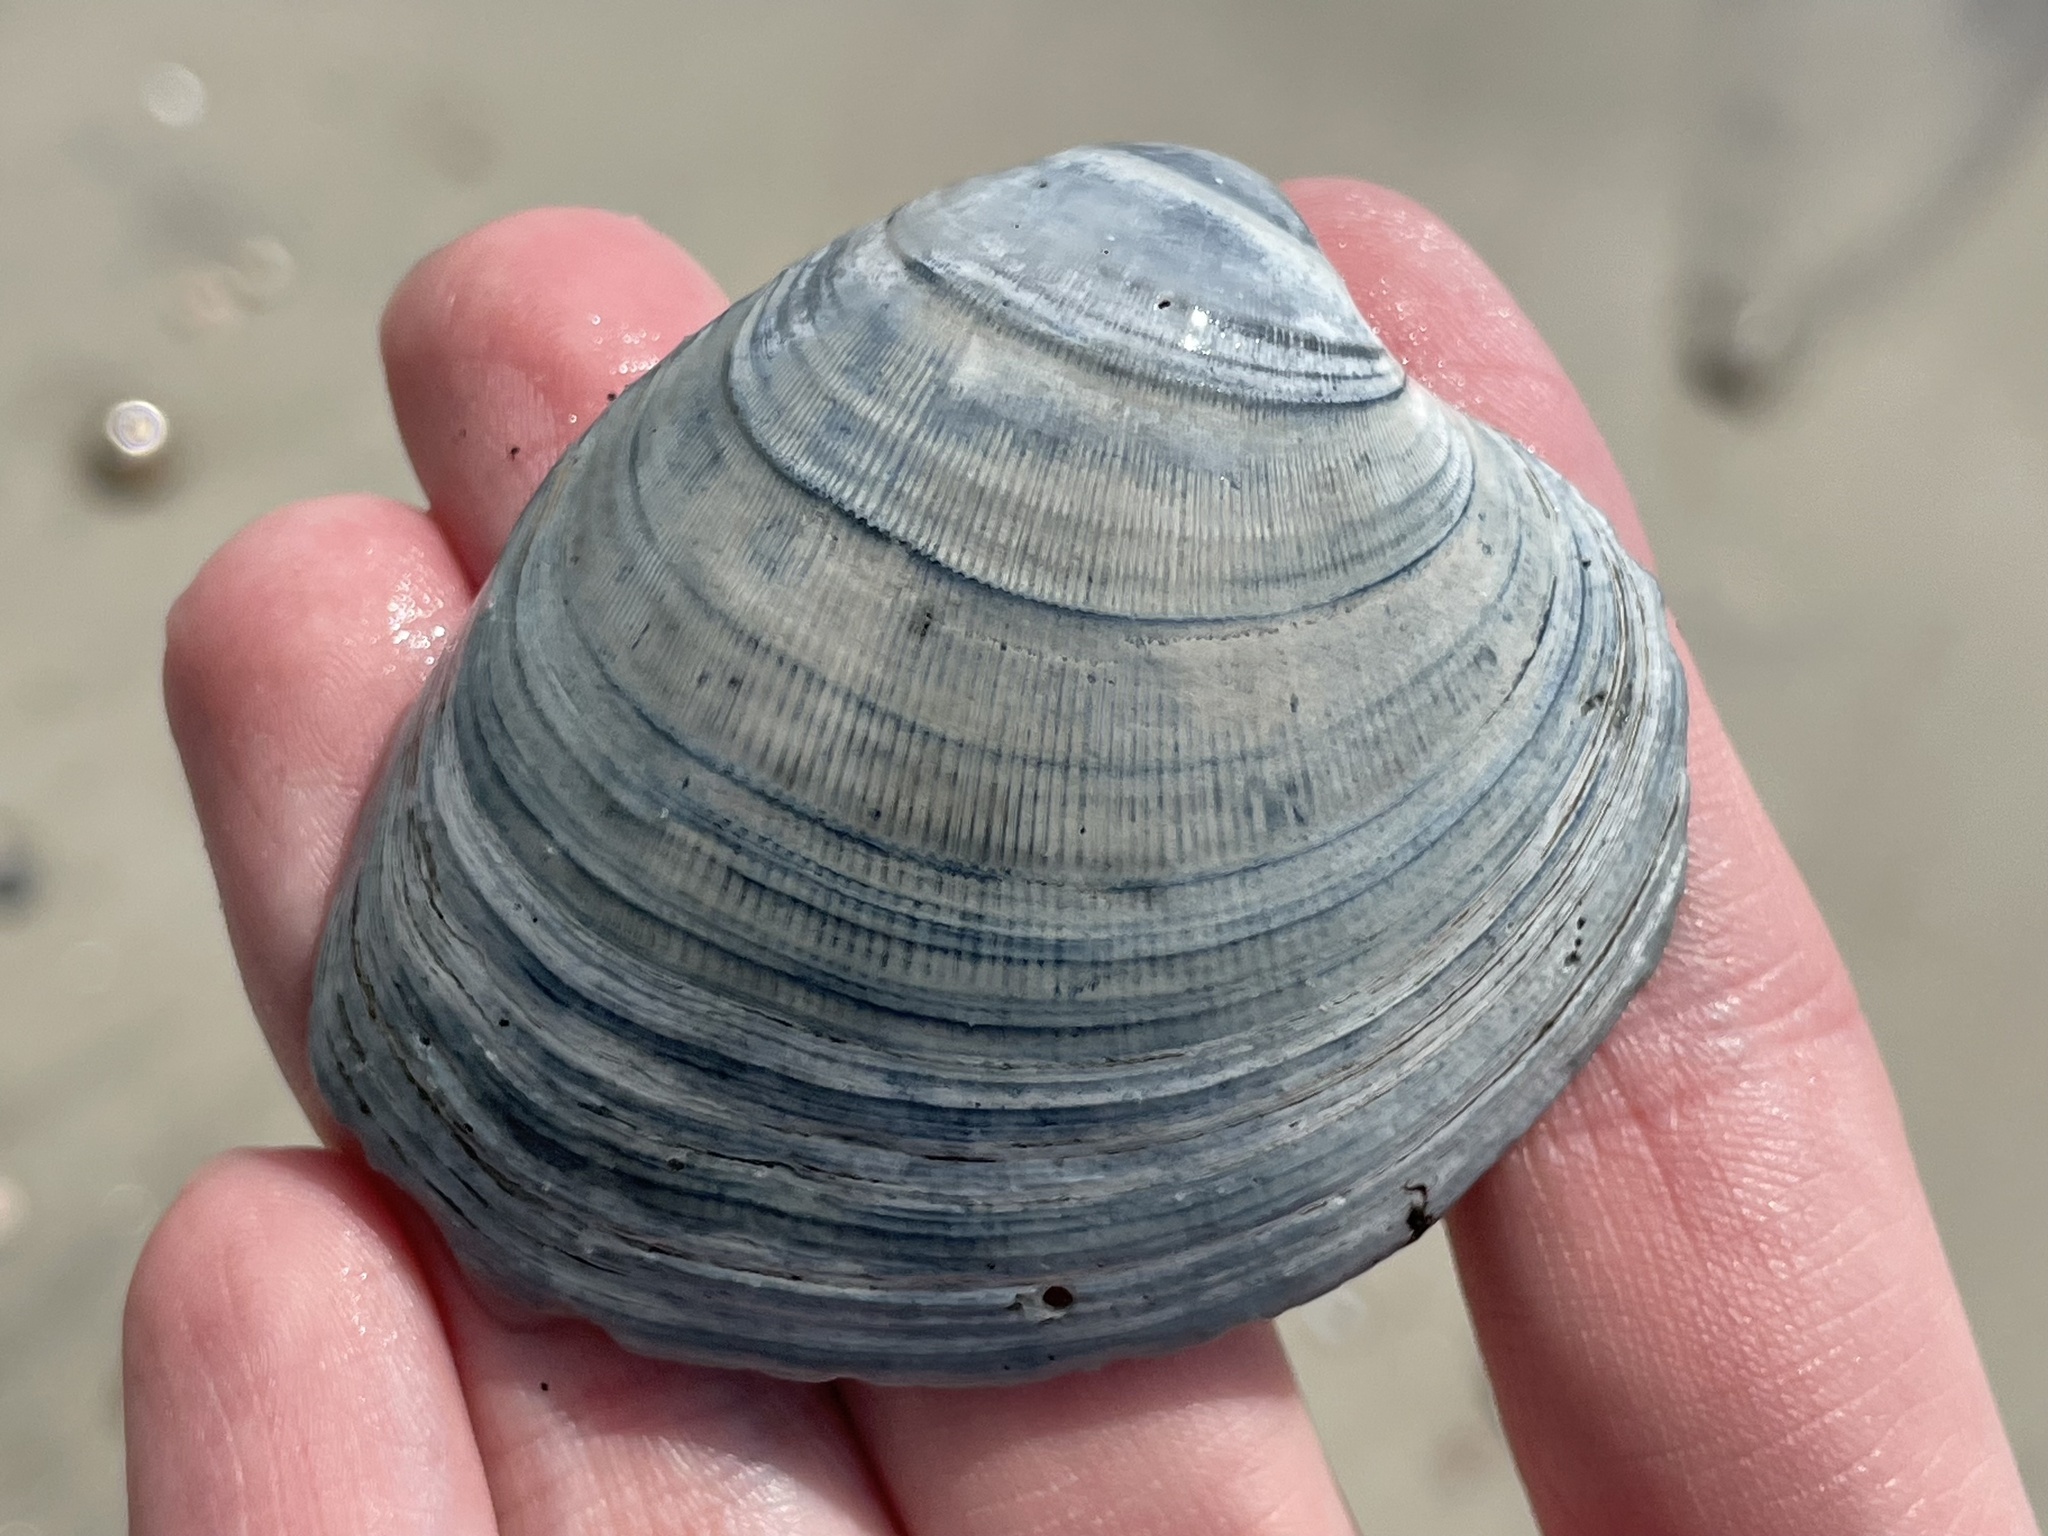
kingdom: Animalia
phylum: Mollusca
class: Bivalvia
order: Venerida
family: Veneridae
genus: Mercenaria
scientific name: Mercenaria mercenaria
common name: American hard-shelled clam
